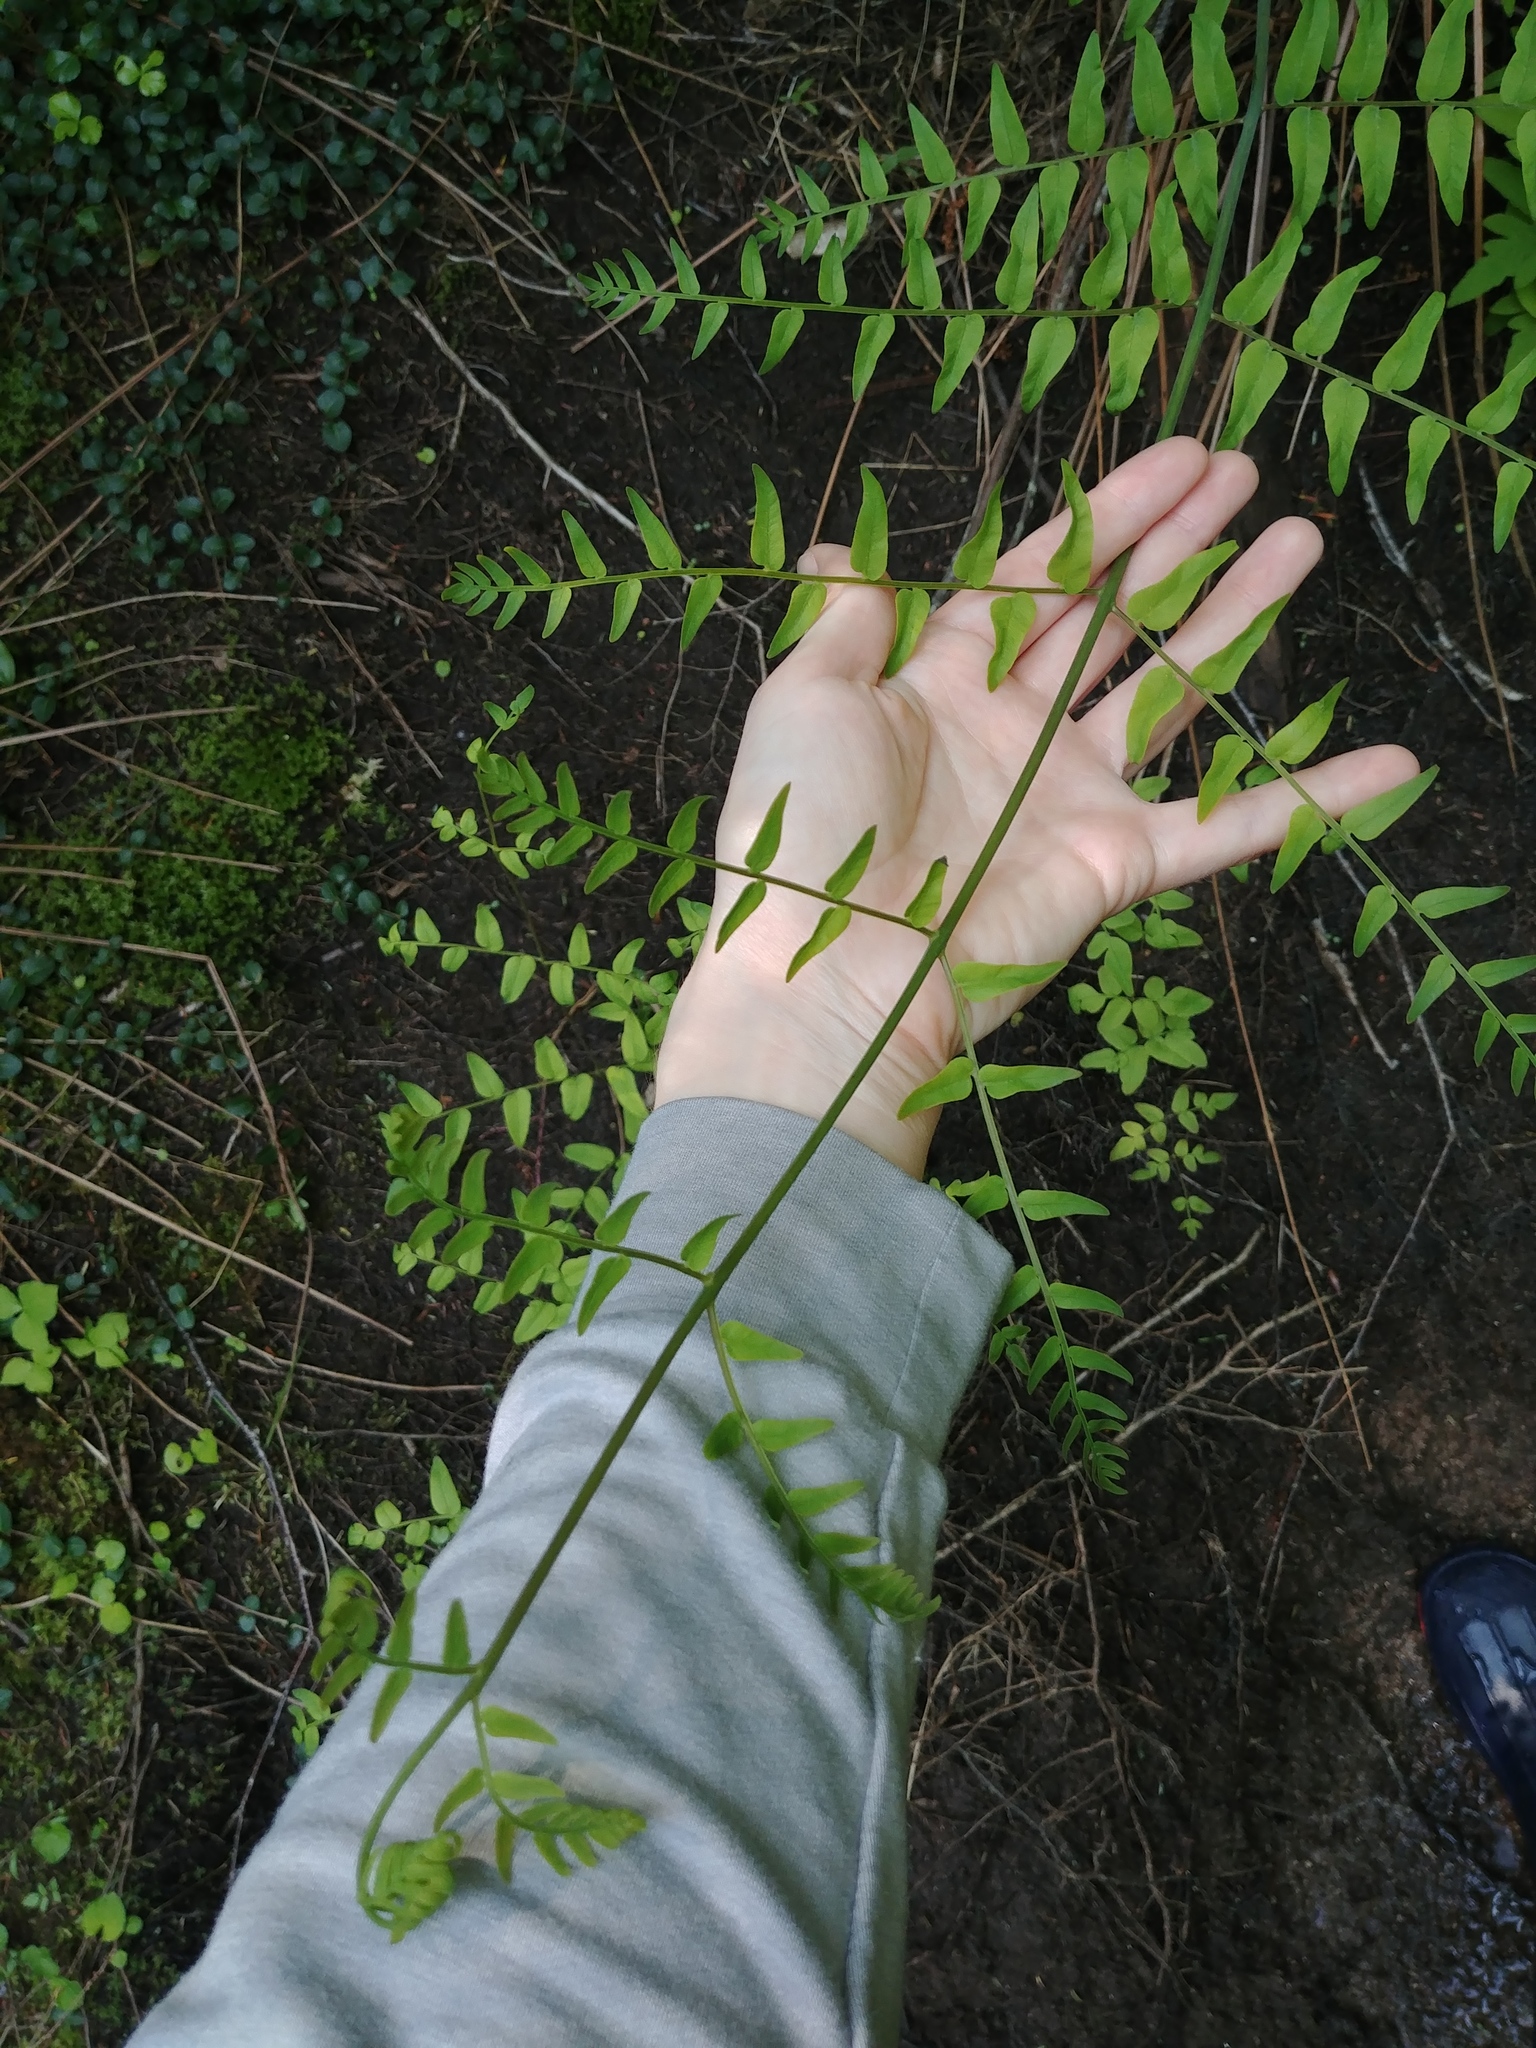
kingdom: Plantae
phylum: Tracheophyta
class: Polypodiopsida
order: Osmundales
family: Osmundaceae
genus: Osmunda
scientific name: Osmunda spectabilis
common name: American royal fern
